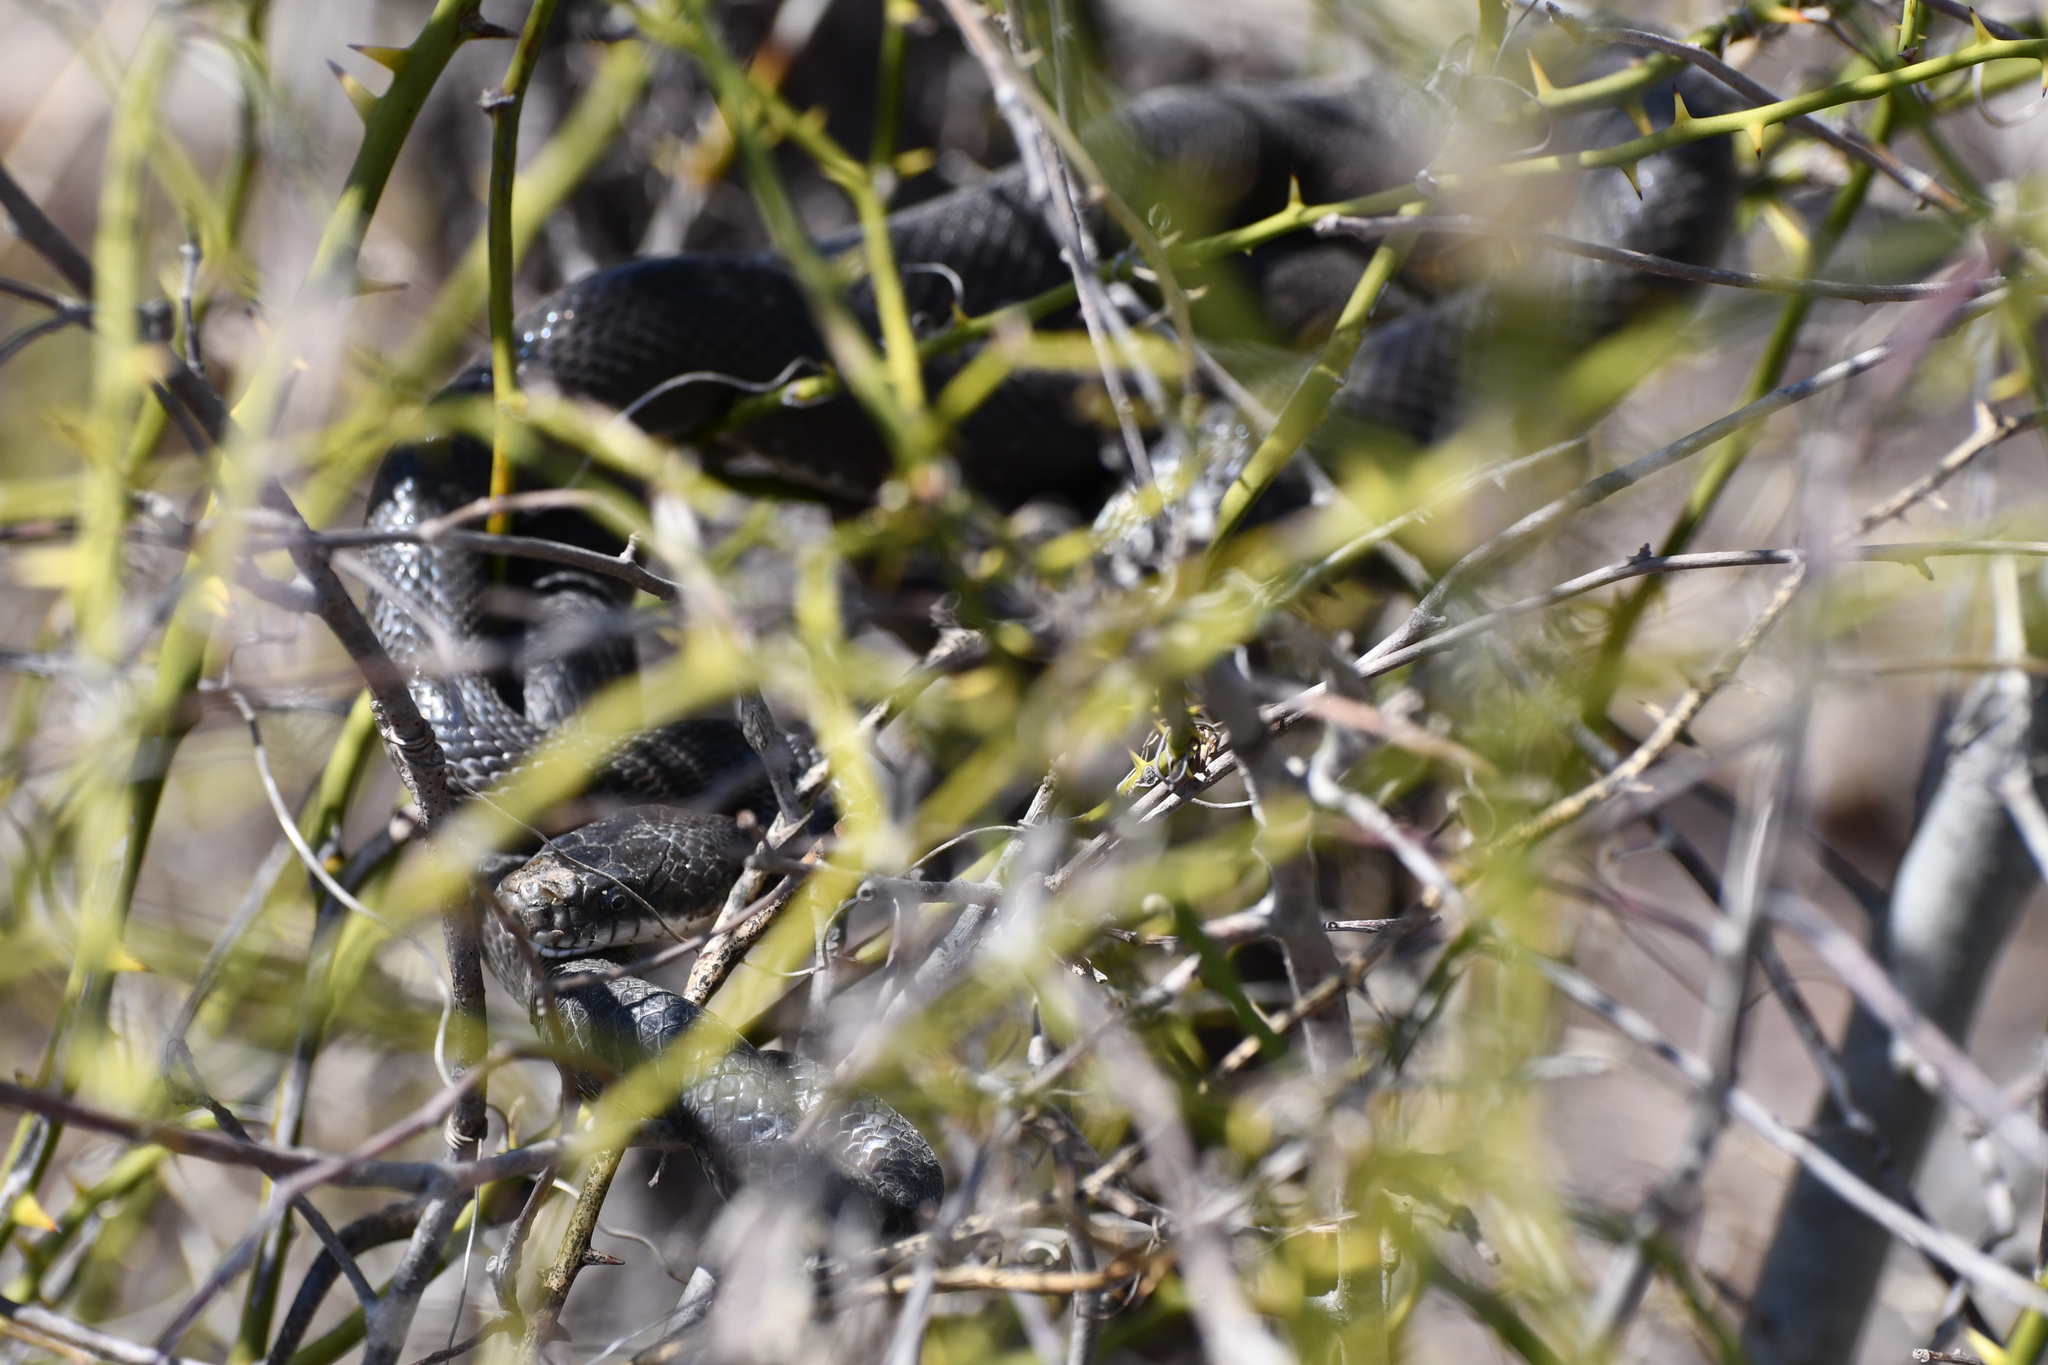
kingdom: Animalia
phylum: Chordata
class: Squamata
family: Colubridae
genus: Pantherophis
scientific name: Pantherophis
